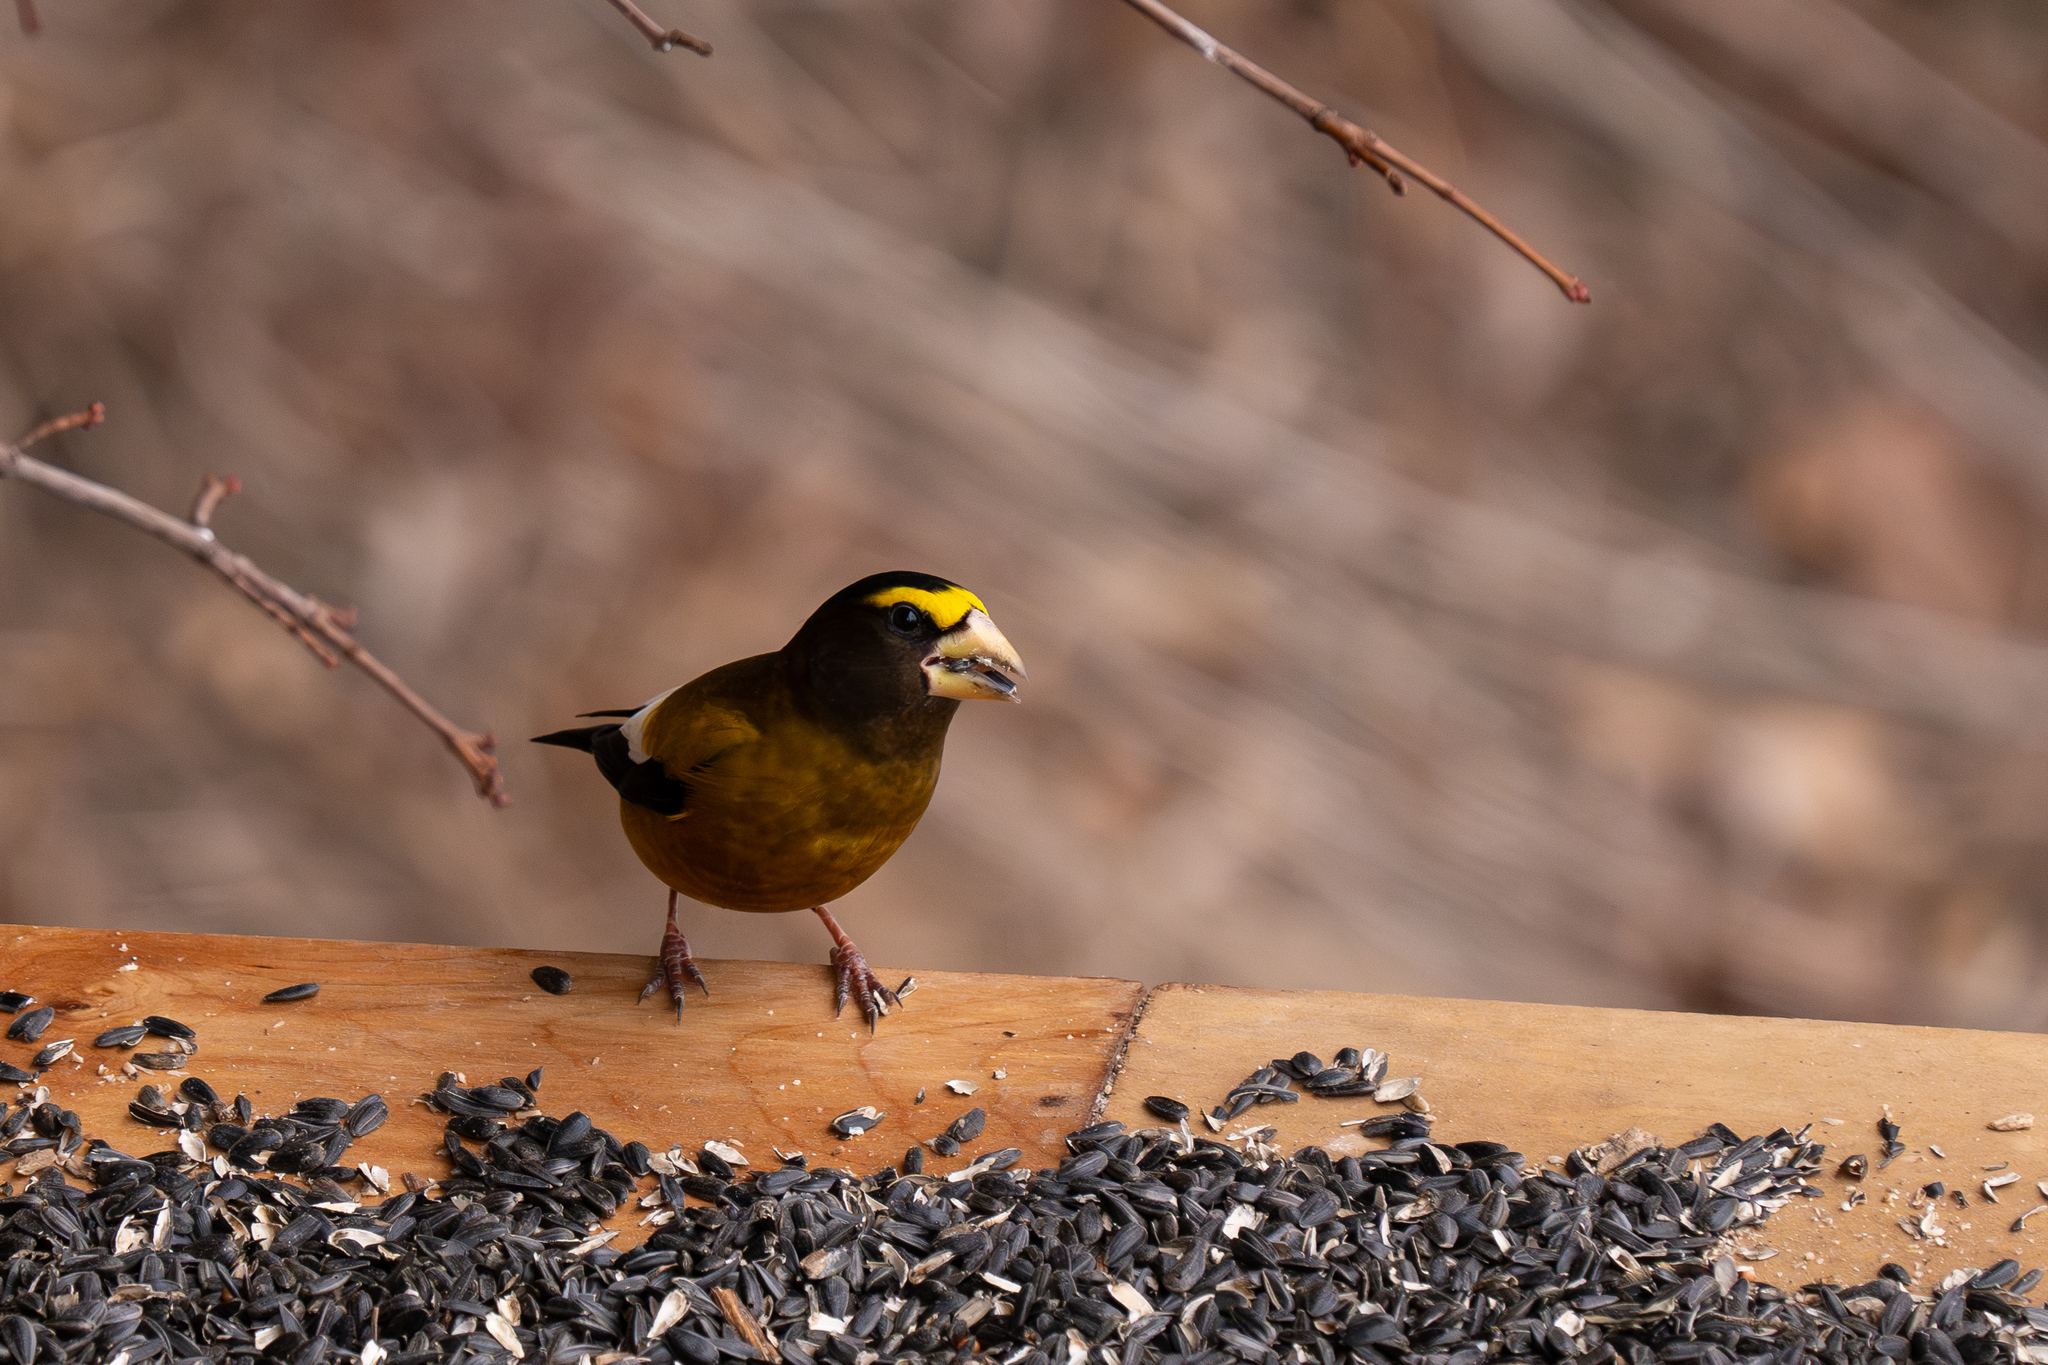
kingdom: Animalia
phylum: Chordata
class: Aves
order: Passeriformes
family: Fringillidae
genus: Hesperiphona
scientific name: Hesperiphona vespertina
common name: Evening grosbeak
